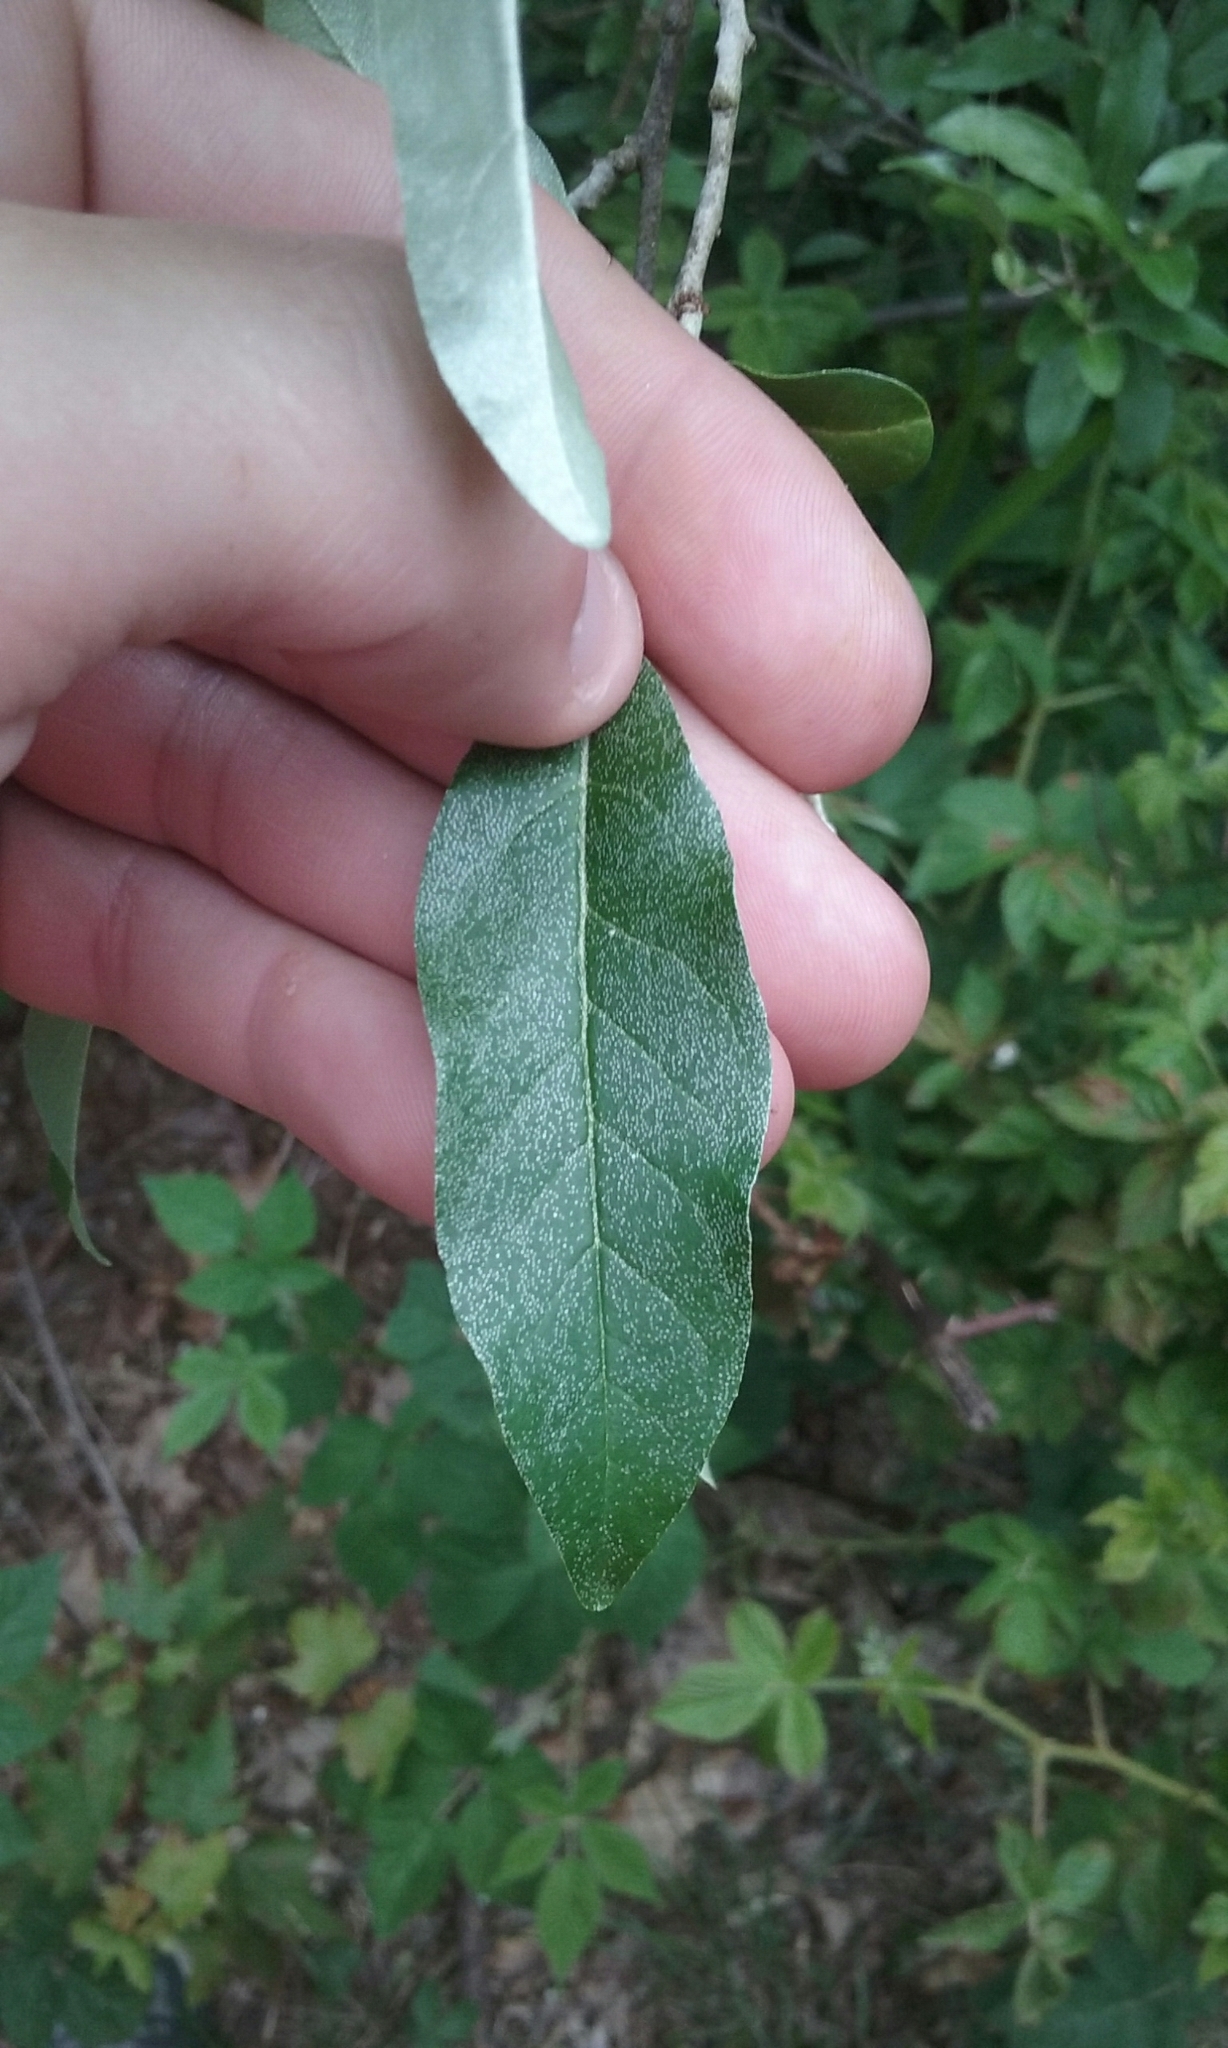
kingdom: Plantae
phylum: Tracheophyta
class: Magnoliopsida
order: Rosales
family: Elaeagnaceae
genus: Elaeagnus
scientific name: Elaeagnus umbellata
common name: Autumn olive
